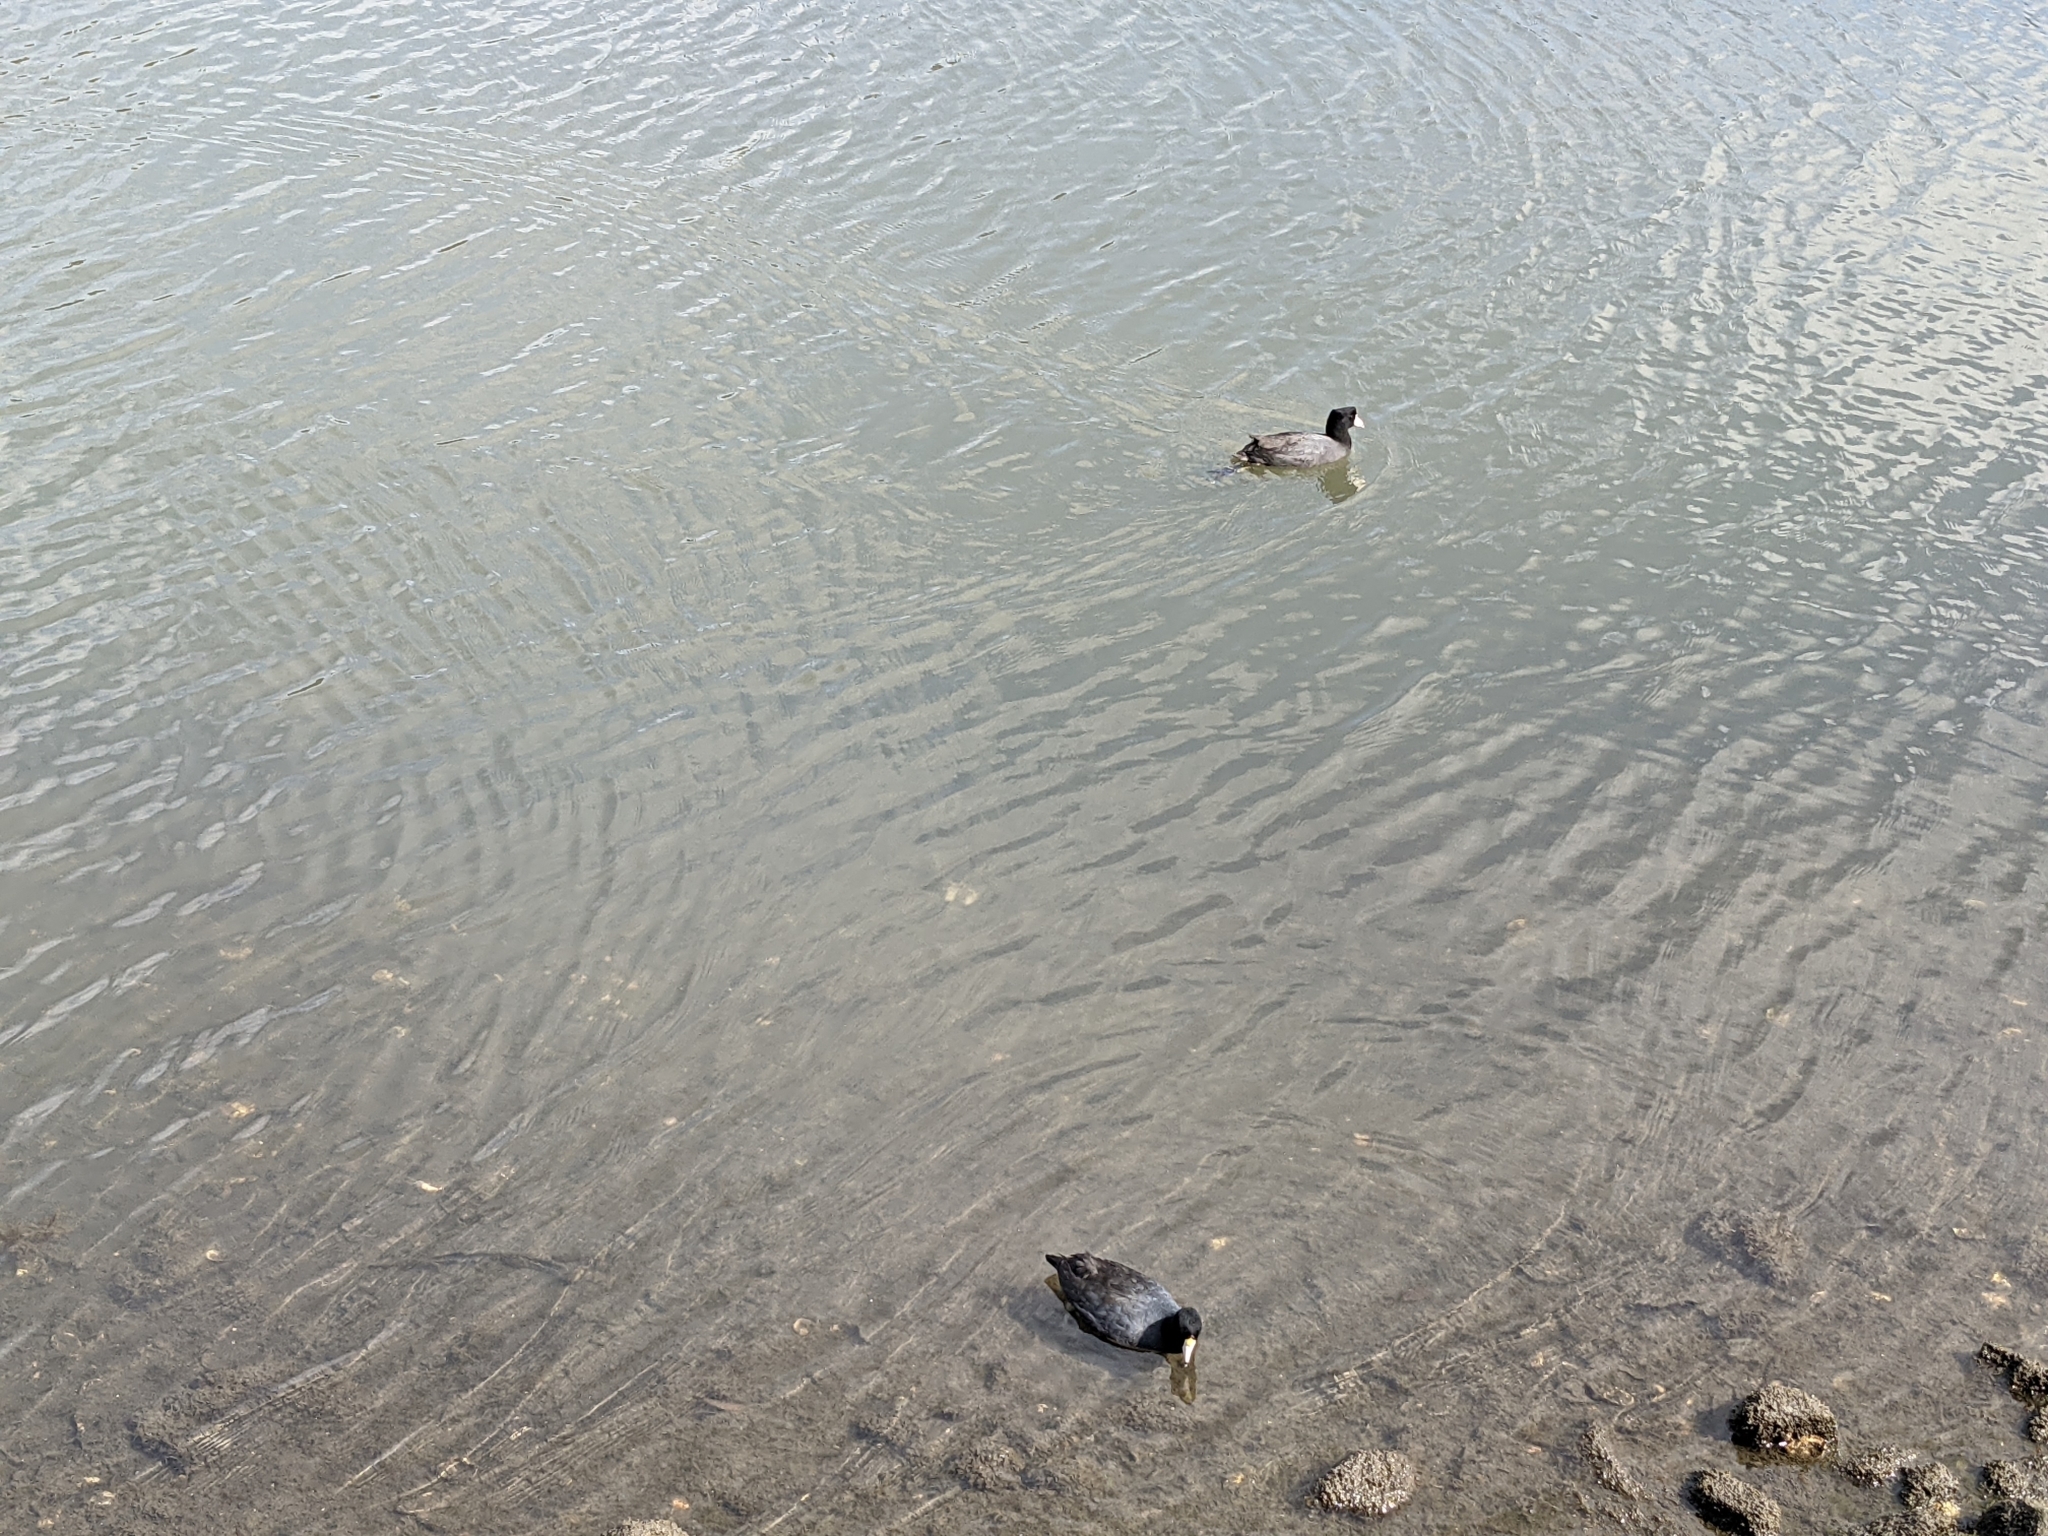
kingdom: Animalia
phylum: Chordata
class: Aves
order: Gruiformes
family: Rallidae
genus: Fulica
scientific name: Fulica americana
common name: American coot
